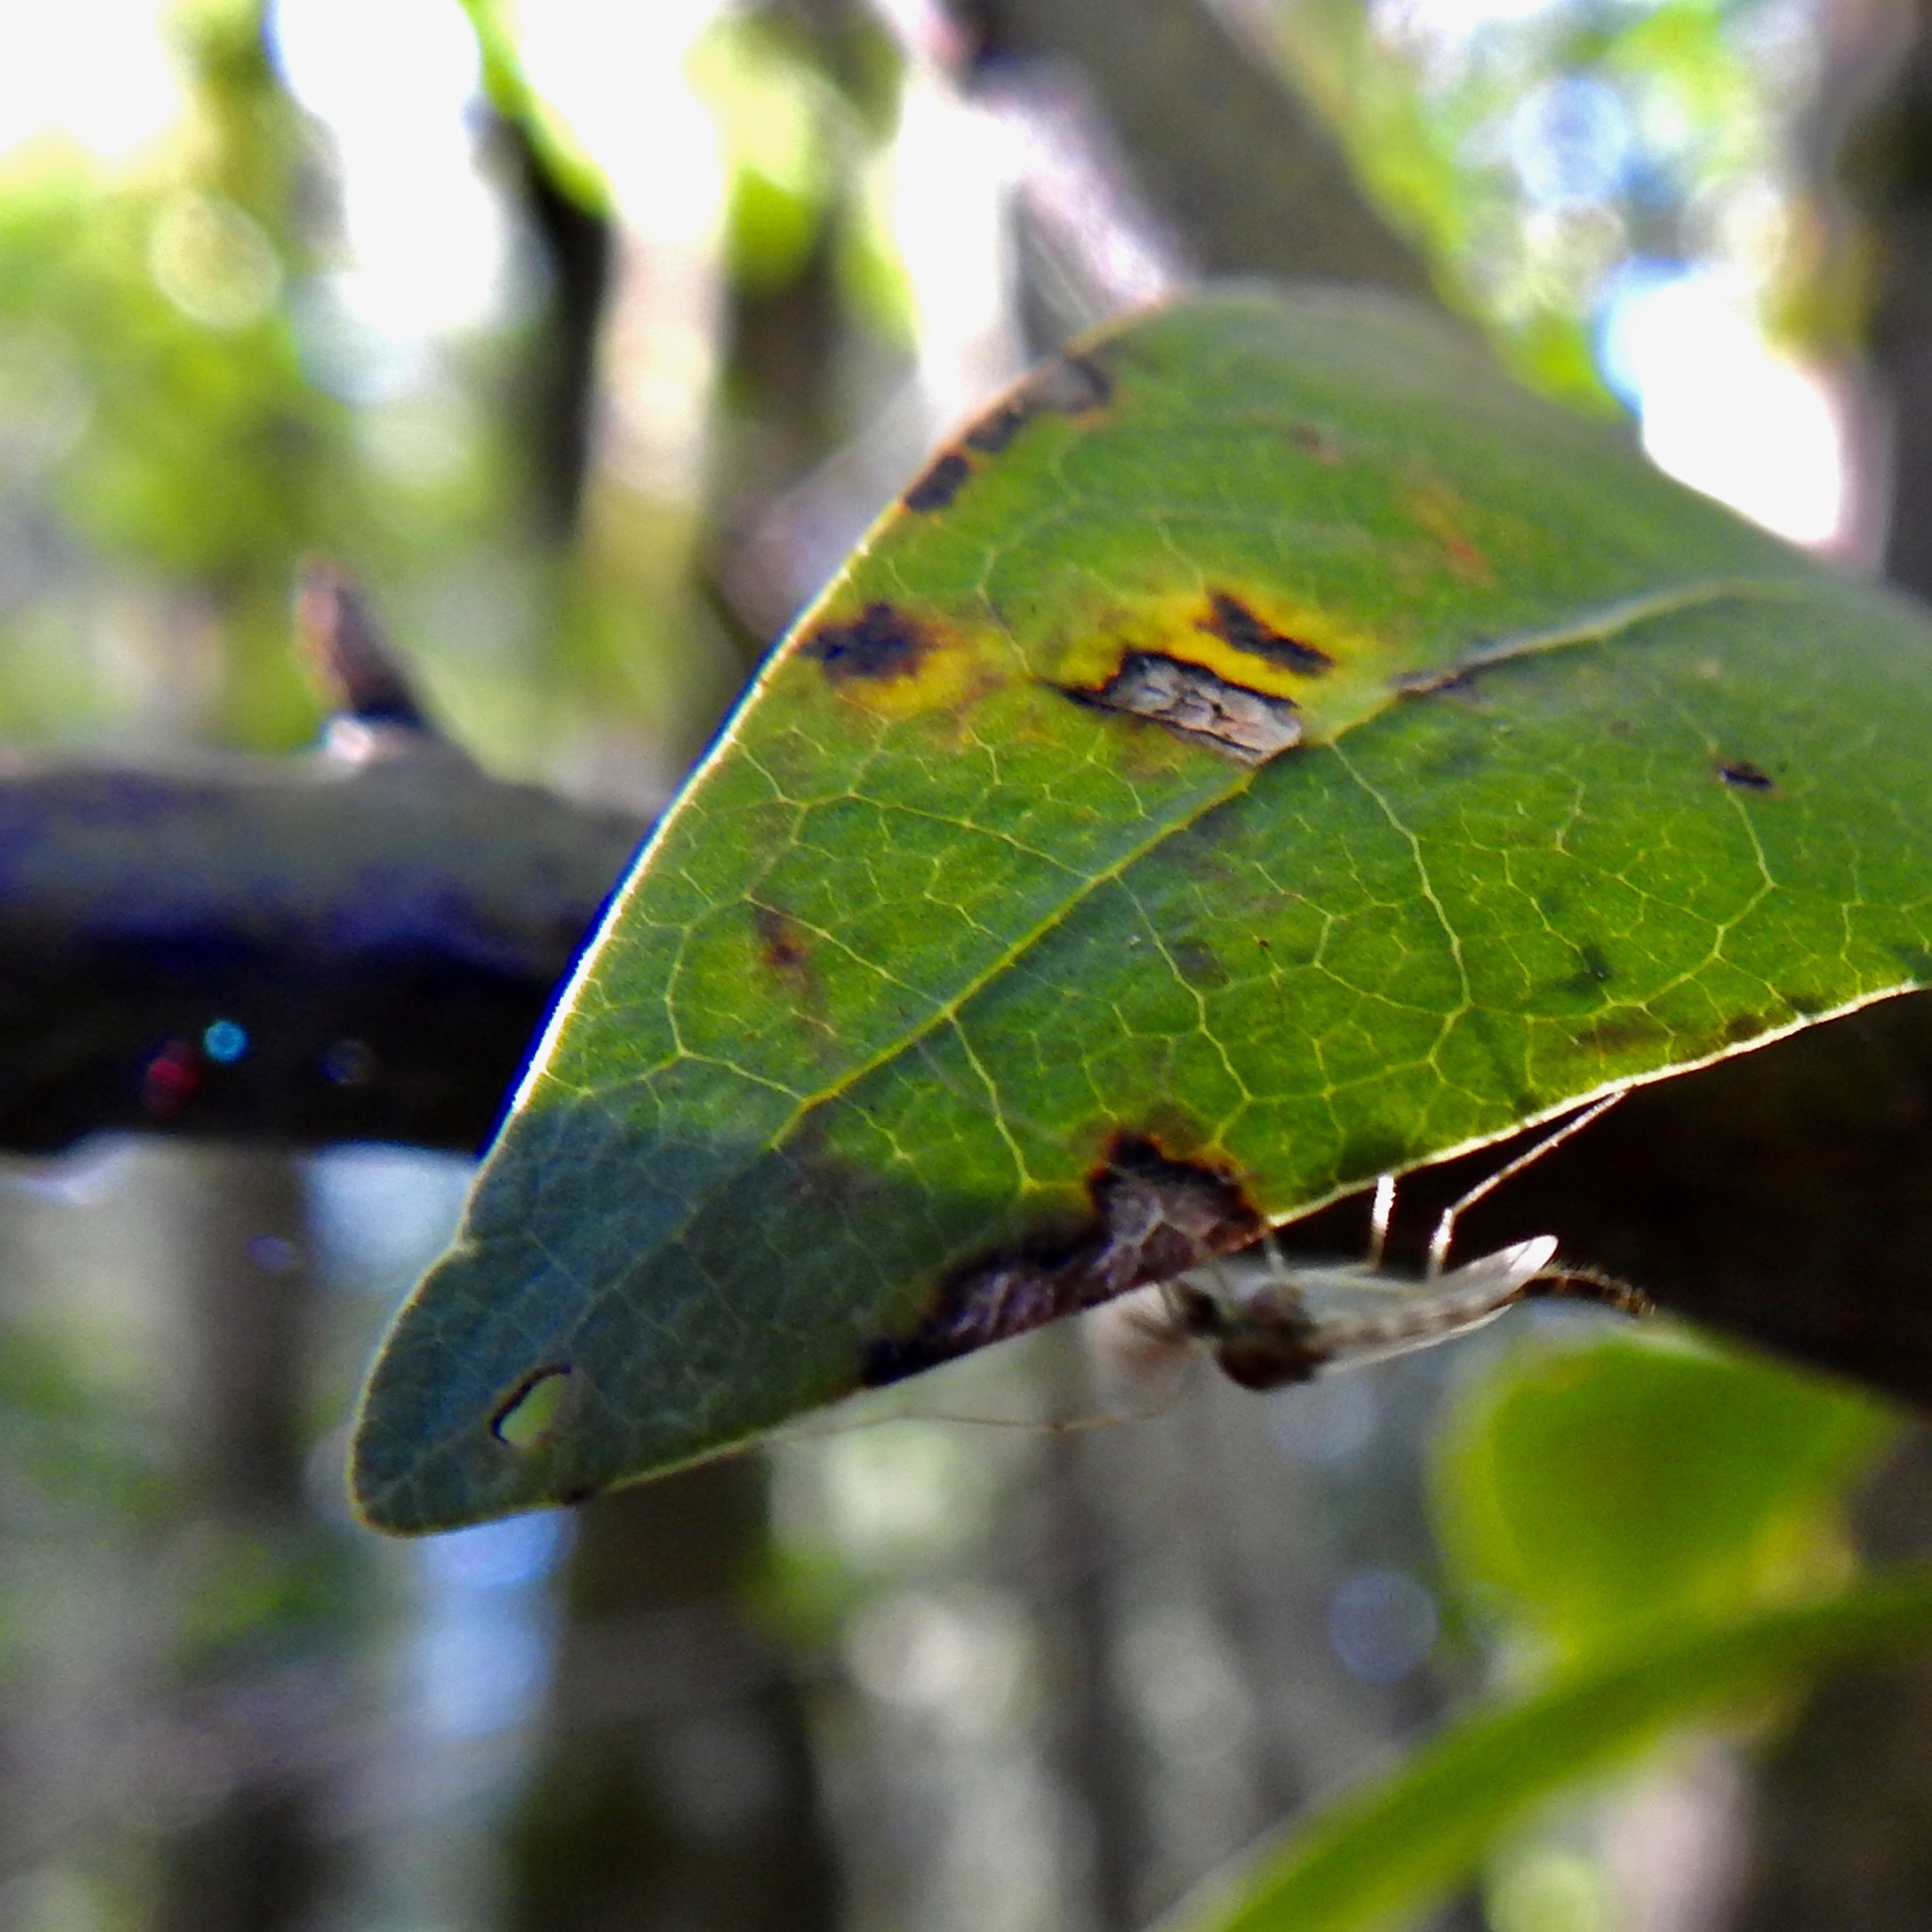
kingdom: Plantae
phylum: Tracheophyta
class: Magnoliopsida
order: Laurales
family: Lauraceae
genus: Umbellularia
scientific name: Umbellularia californica
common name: California bay
